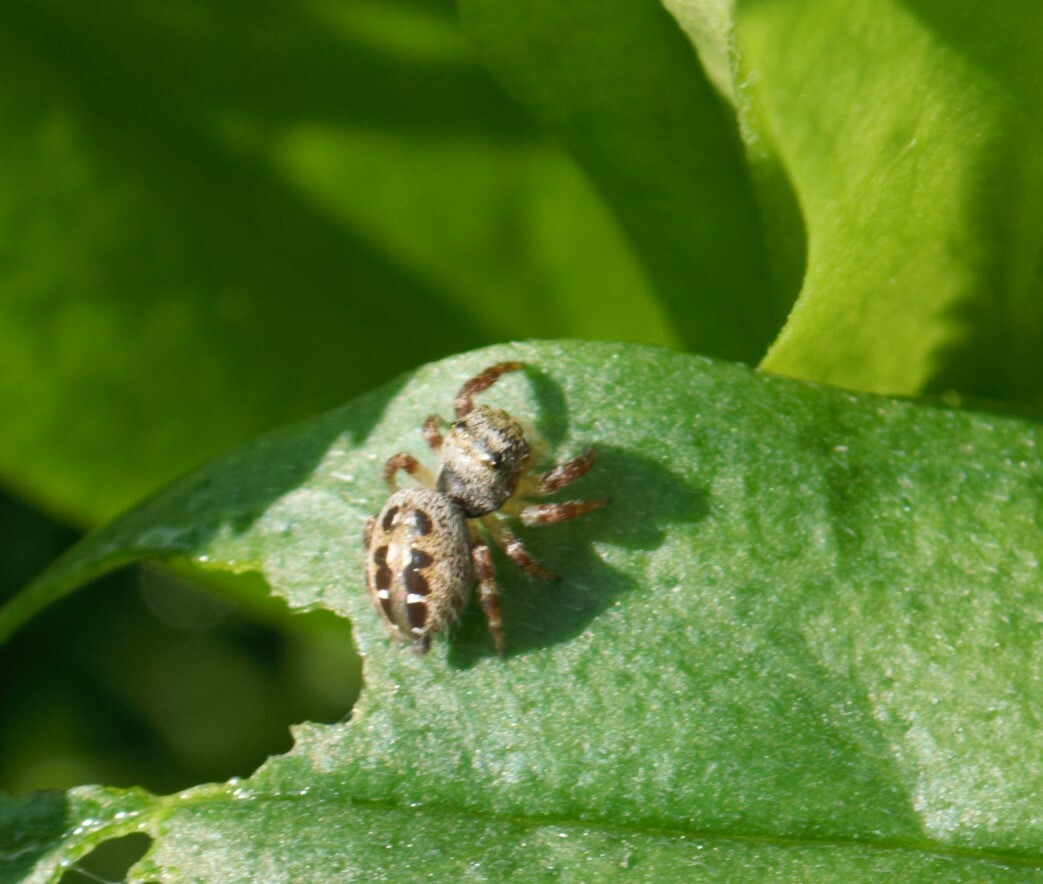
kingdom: Animalia
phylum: Arthropoda
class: Arachnida
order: Araneae
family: Salticidae
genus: Phidippus
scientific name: Phidippus princeps
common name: Grayish jumping spider
